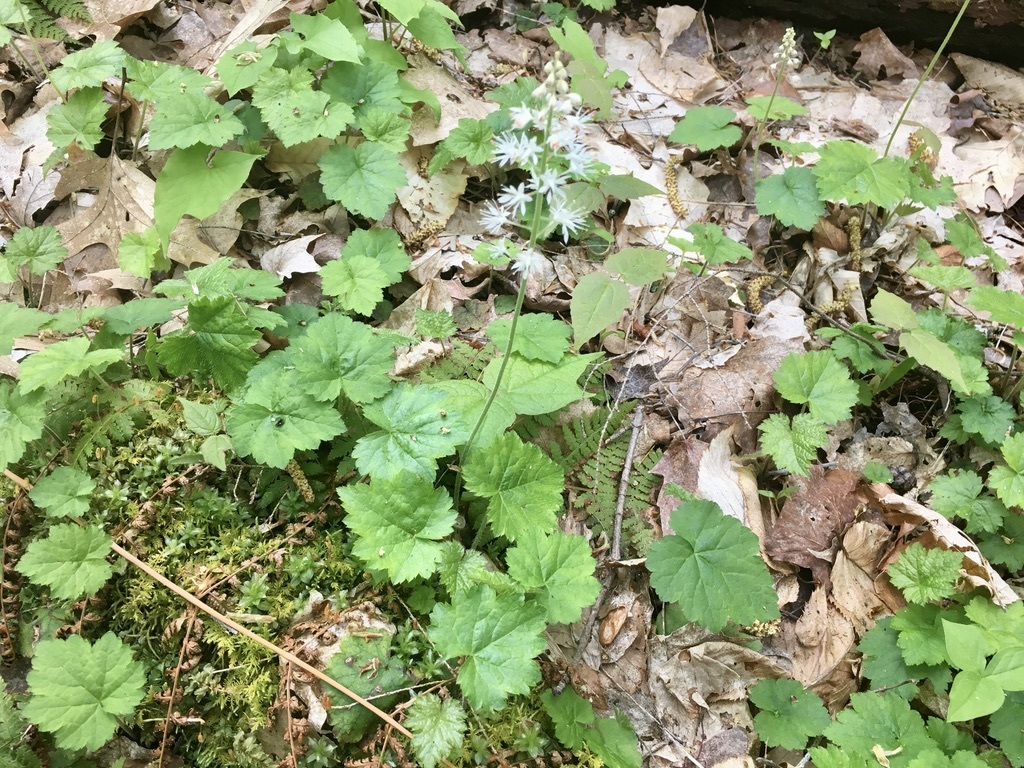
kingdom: Plantae
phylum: Tracheophyta
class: Magnoliopsida
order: Saxifragales
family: Saxifragaceae
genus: Tiarella
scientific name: Tiarella stolonifera
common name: Stoloniferous foamflower
